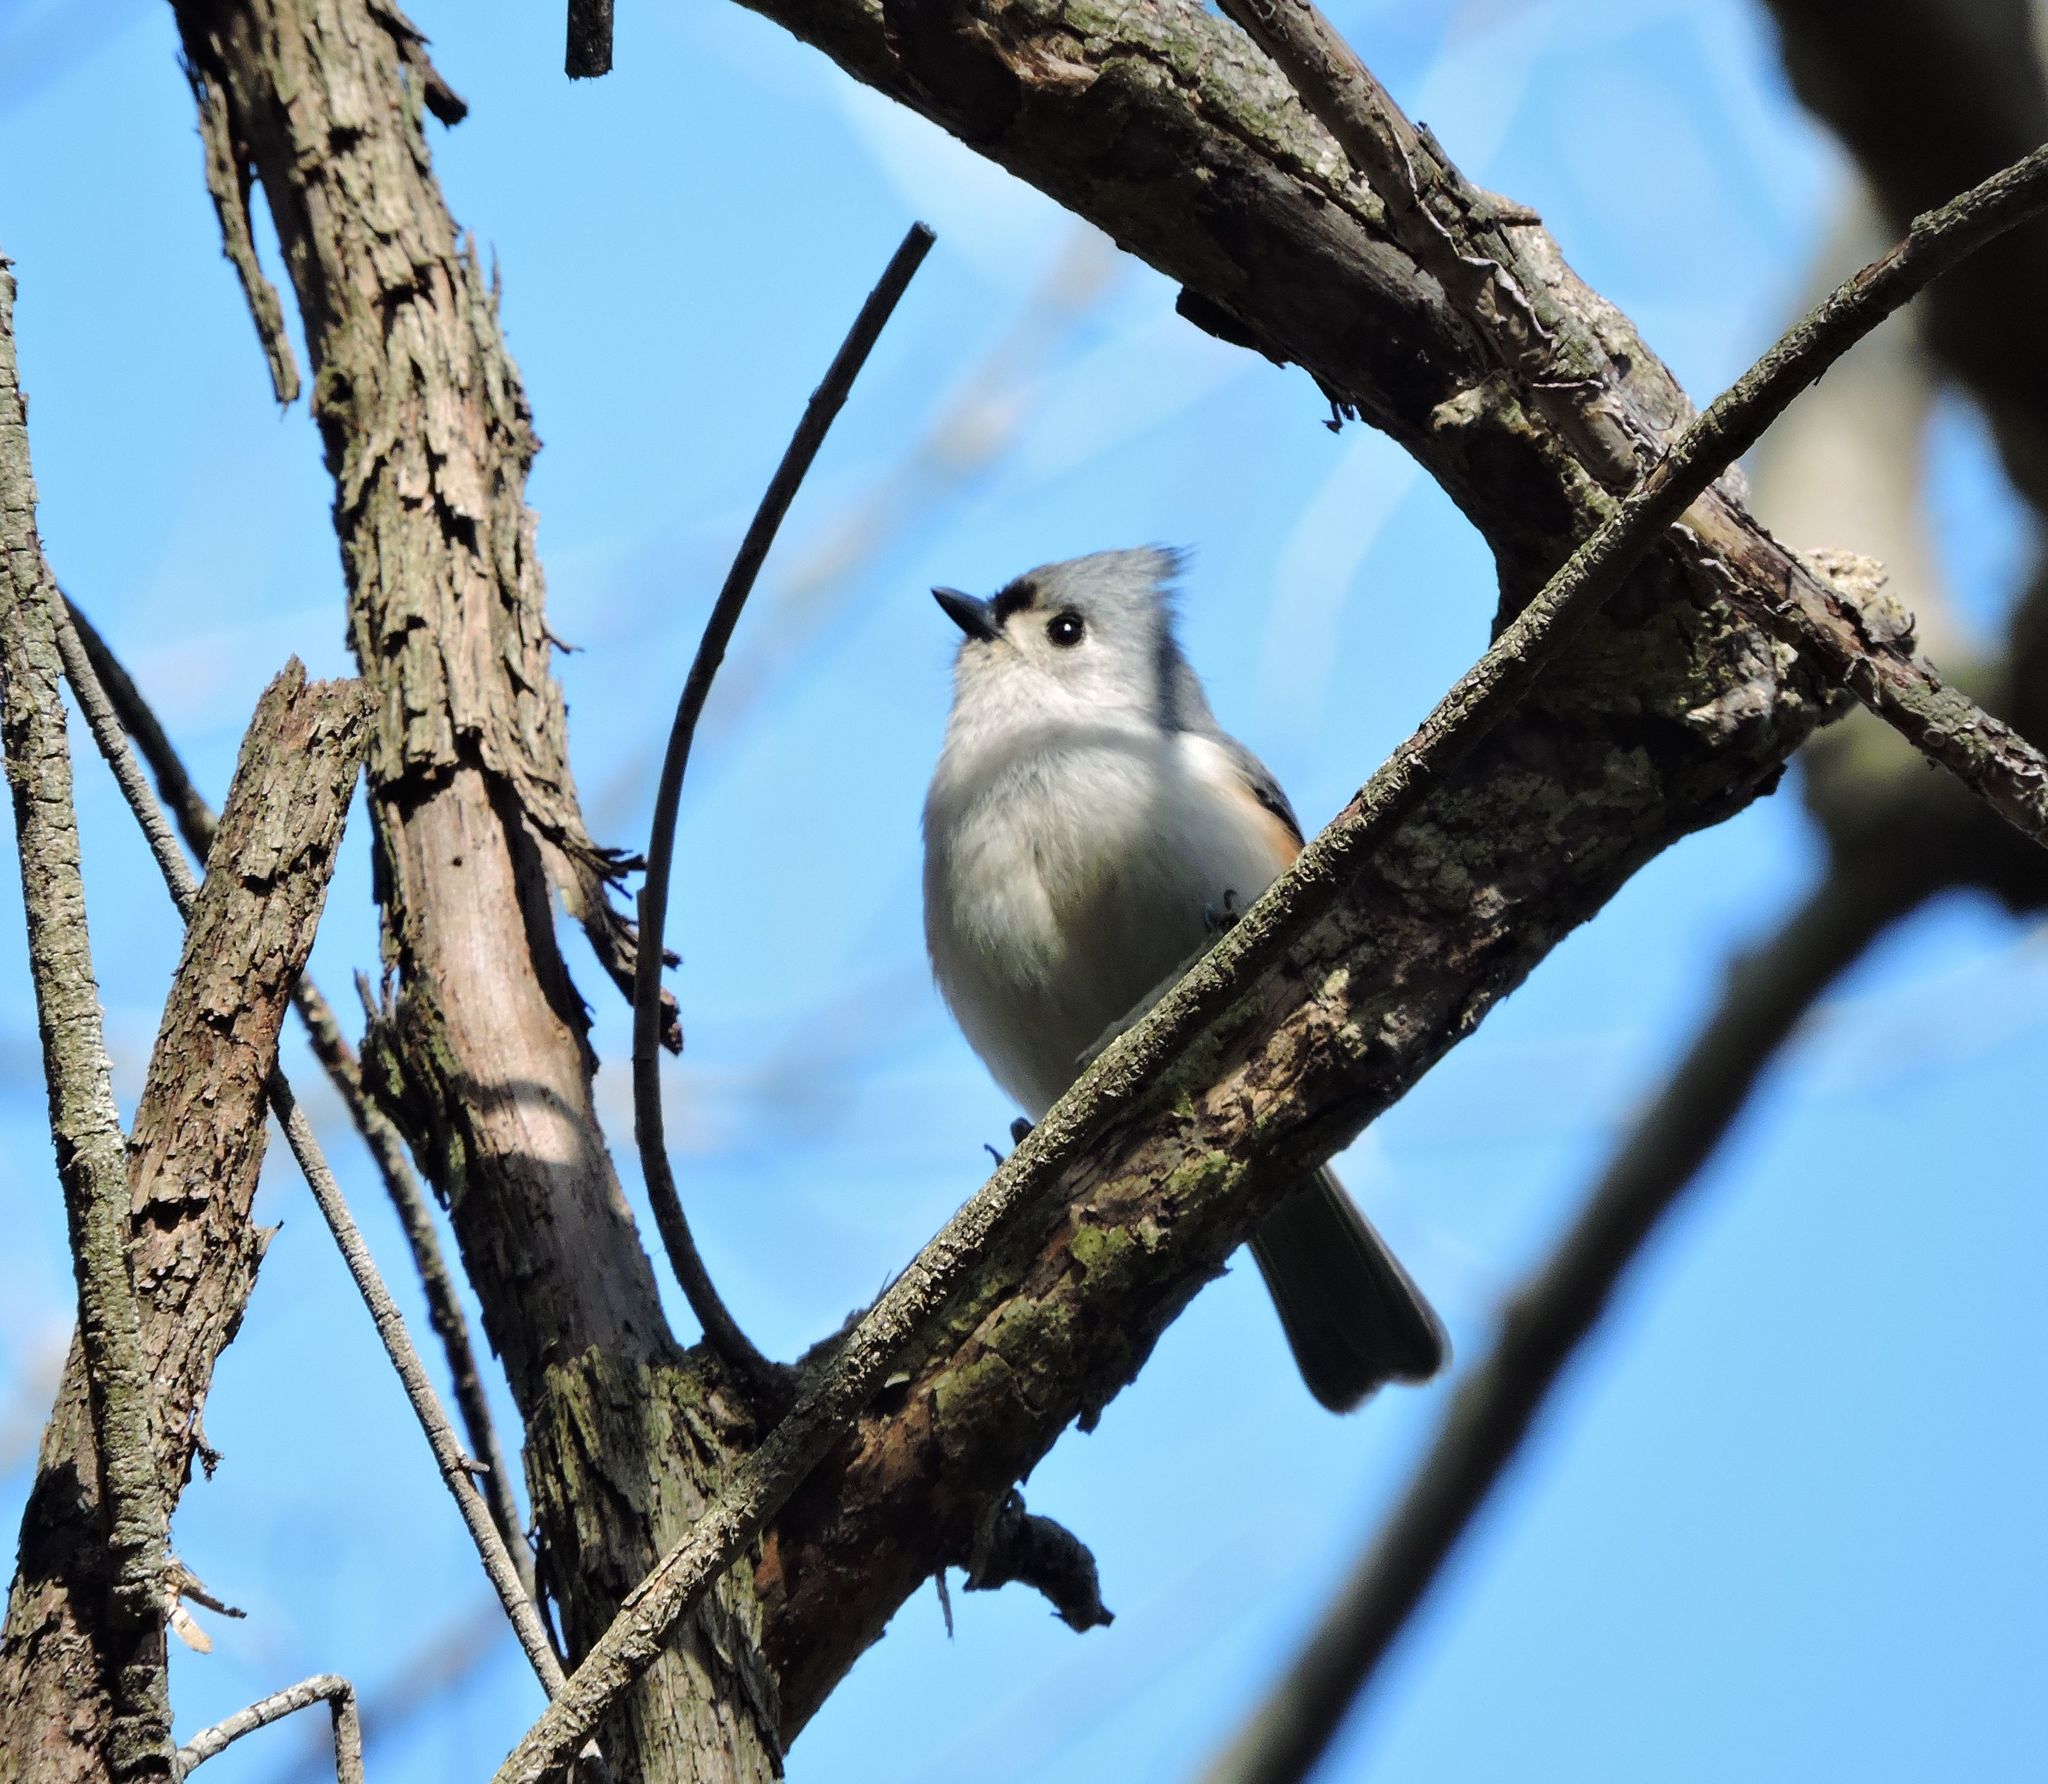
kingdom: Animalia
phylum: Chordata
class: Aves
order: Passeriformes
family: Paridae
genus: Baeolophus
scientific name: Baeolophus bicolor
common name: Tufted titmouse
